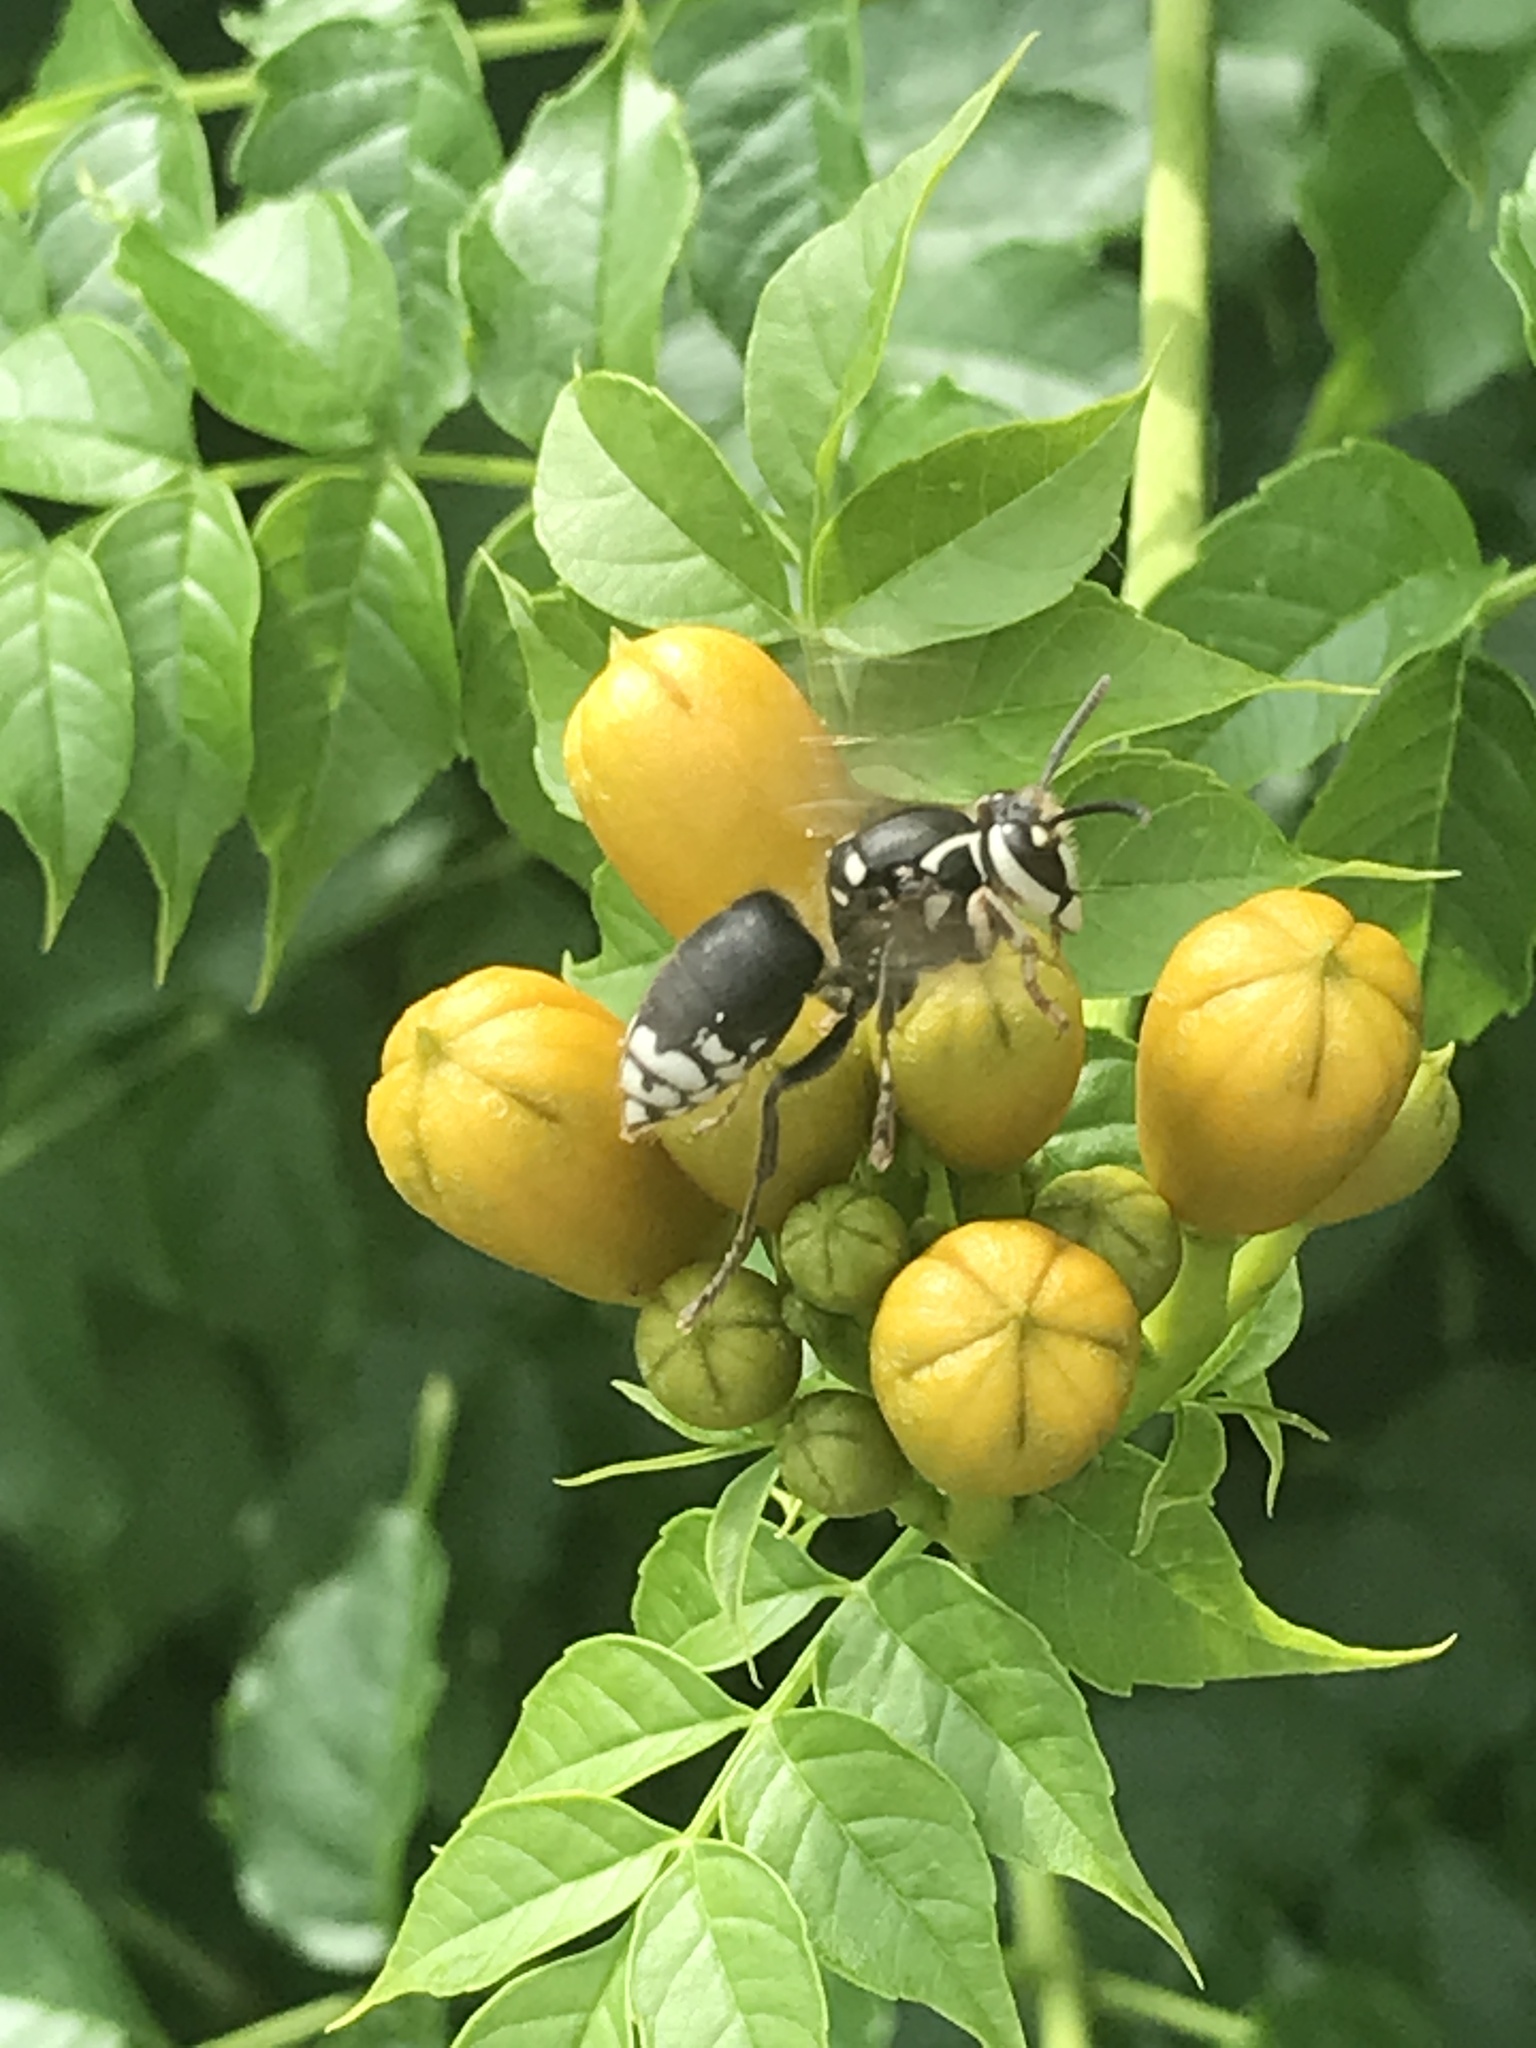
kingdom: Animalia
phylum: Arthropoda
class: Insecta
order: Hymenoptera
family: Vespidae
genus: Dolichovespula
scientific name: Dolichovespula maculata
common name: Bald-faced hornet
